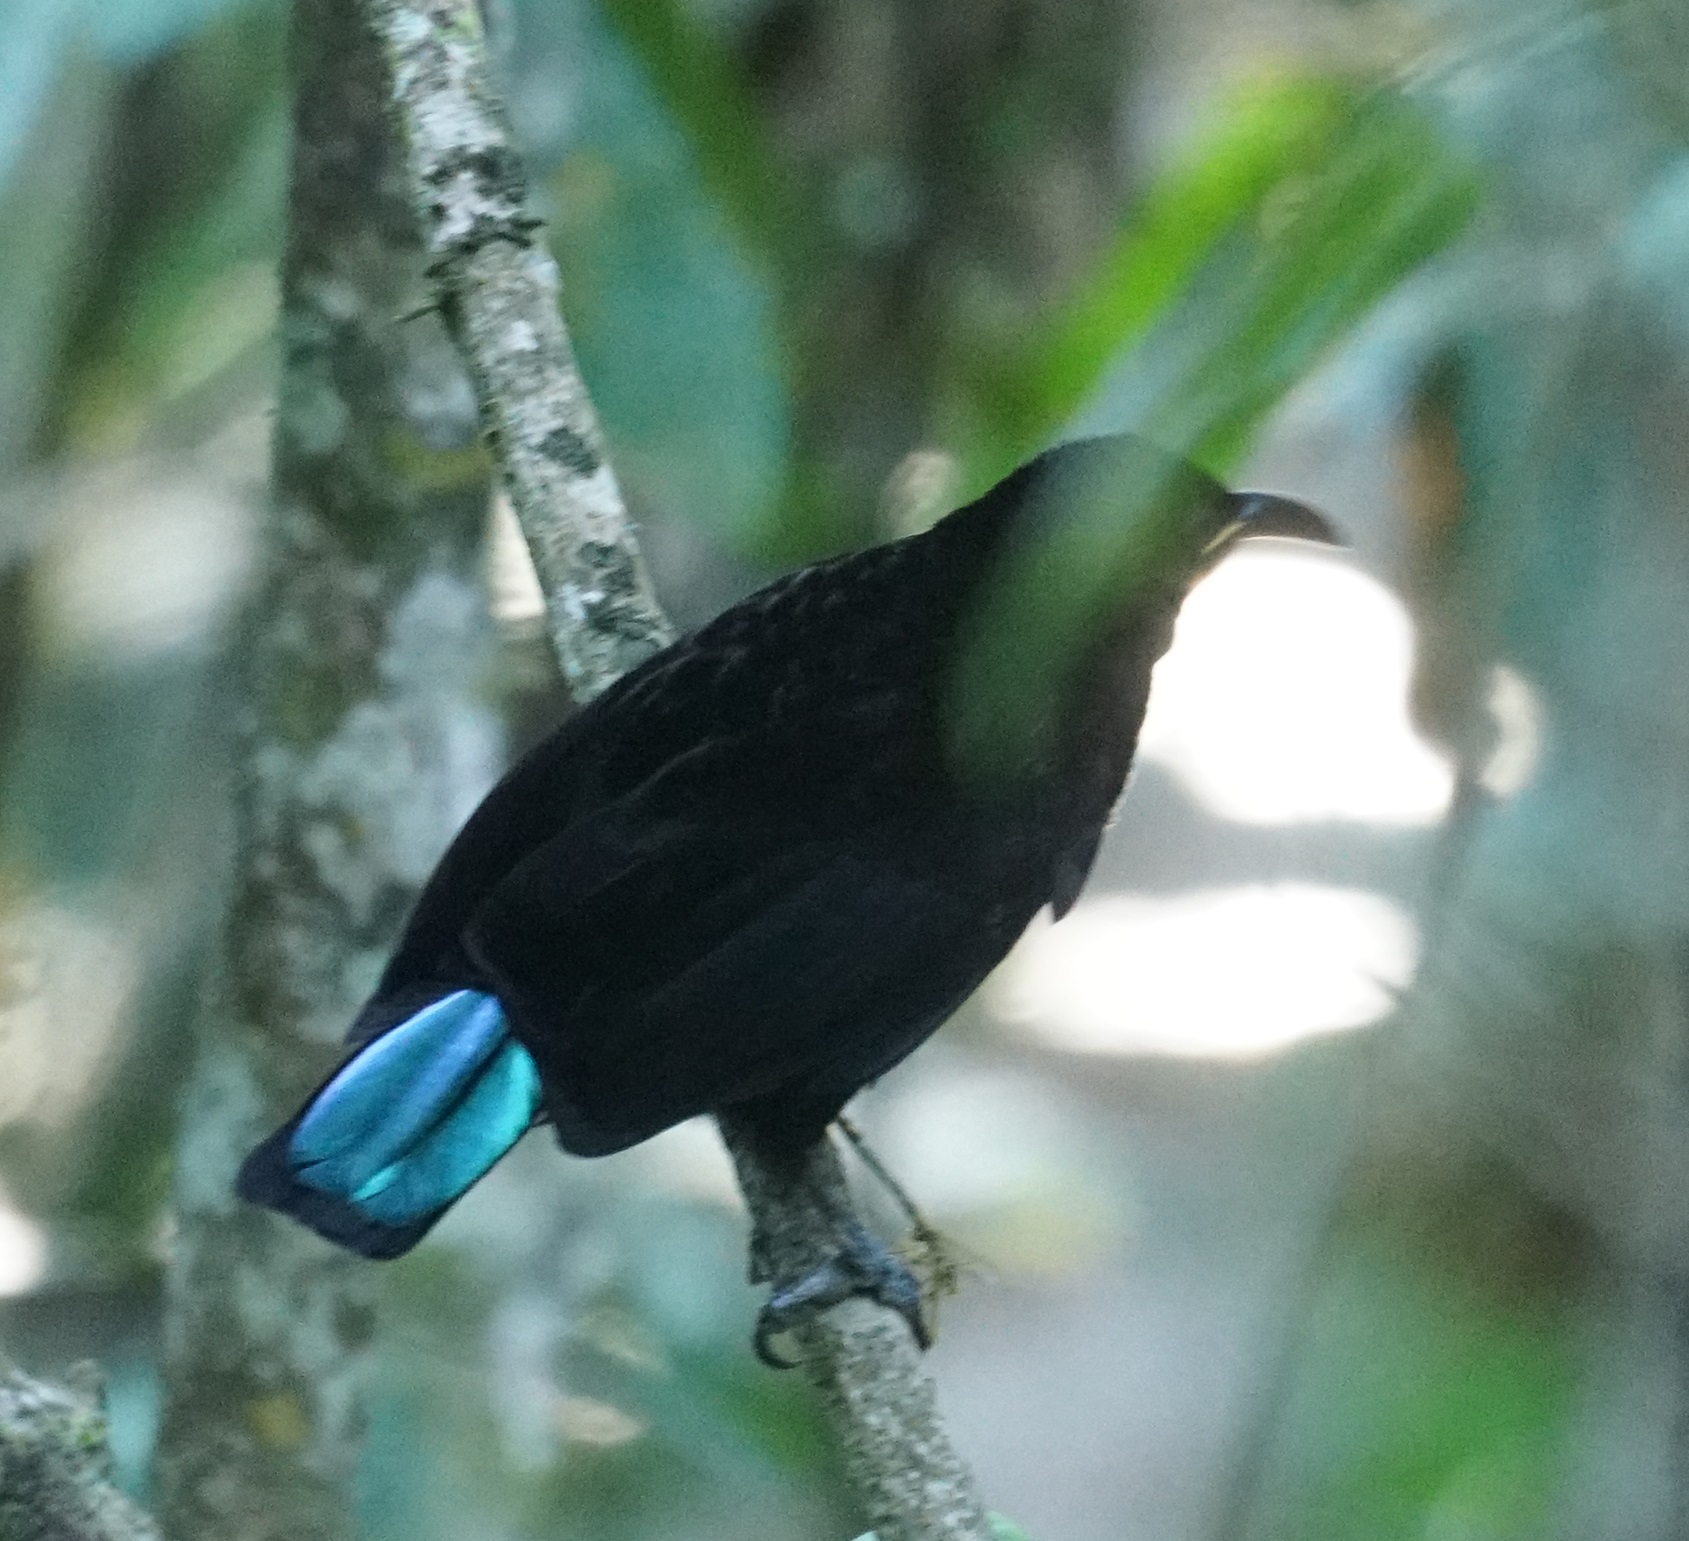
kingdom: Animalia
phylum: Chordata
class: Aves
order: Passeriformes
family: Paradisaeidae
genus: Ptiloris
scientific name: Ptiloris victoriae
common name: Victoria's riflebird
